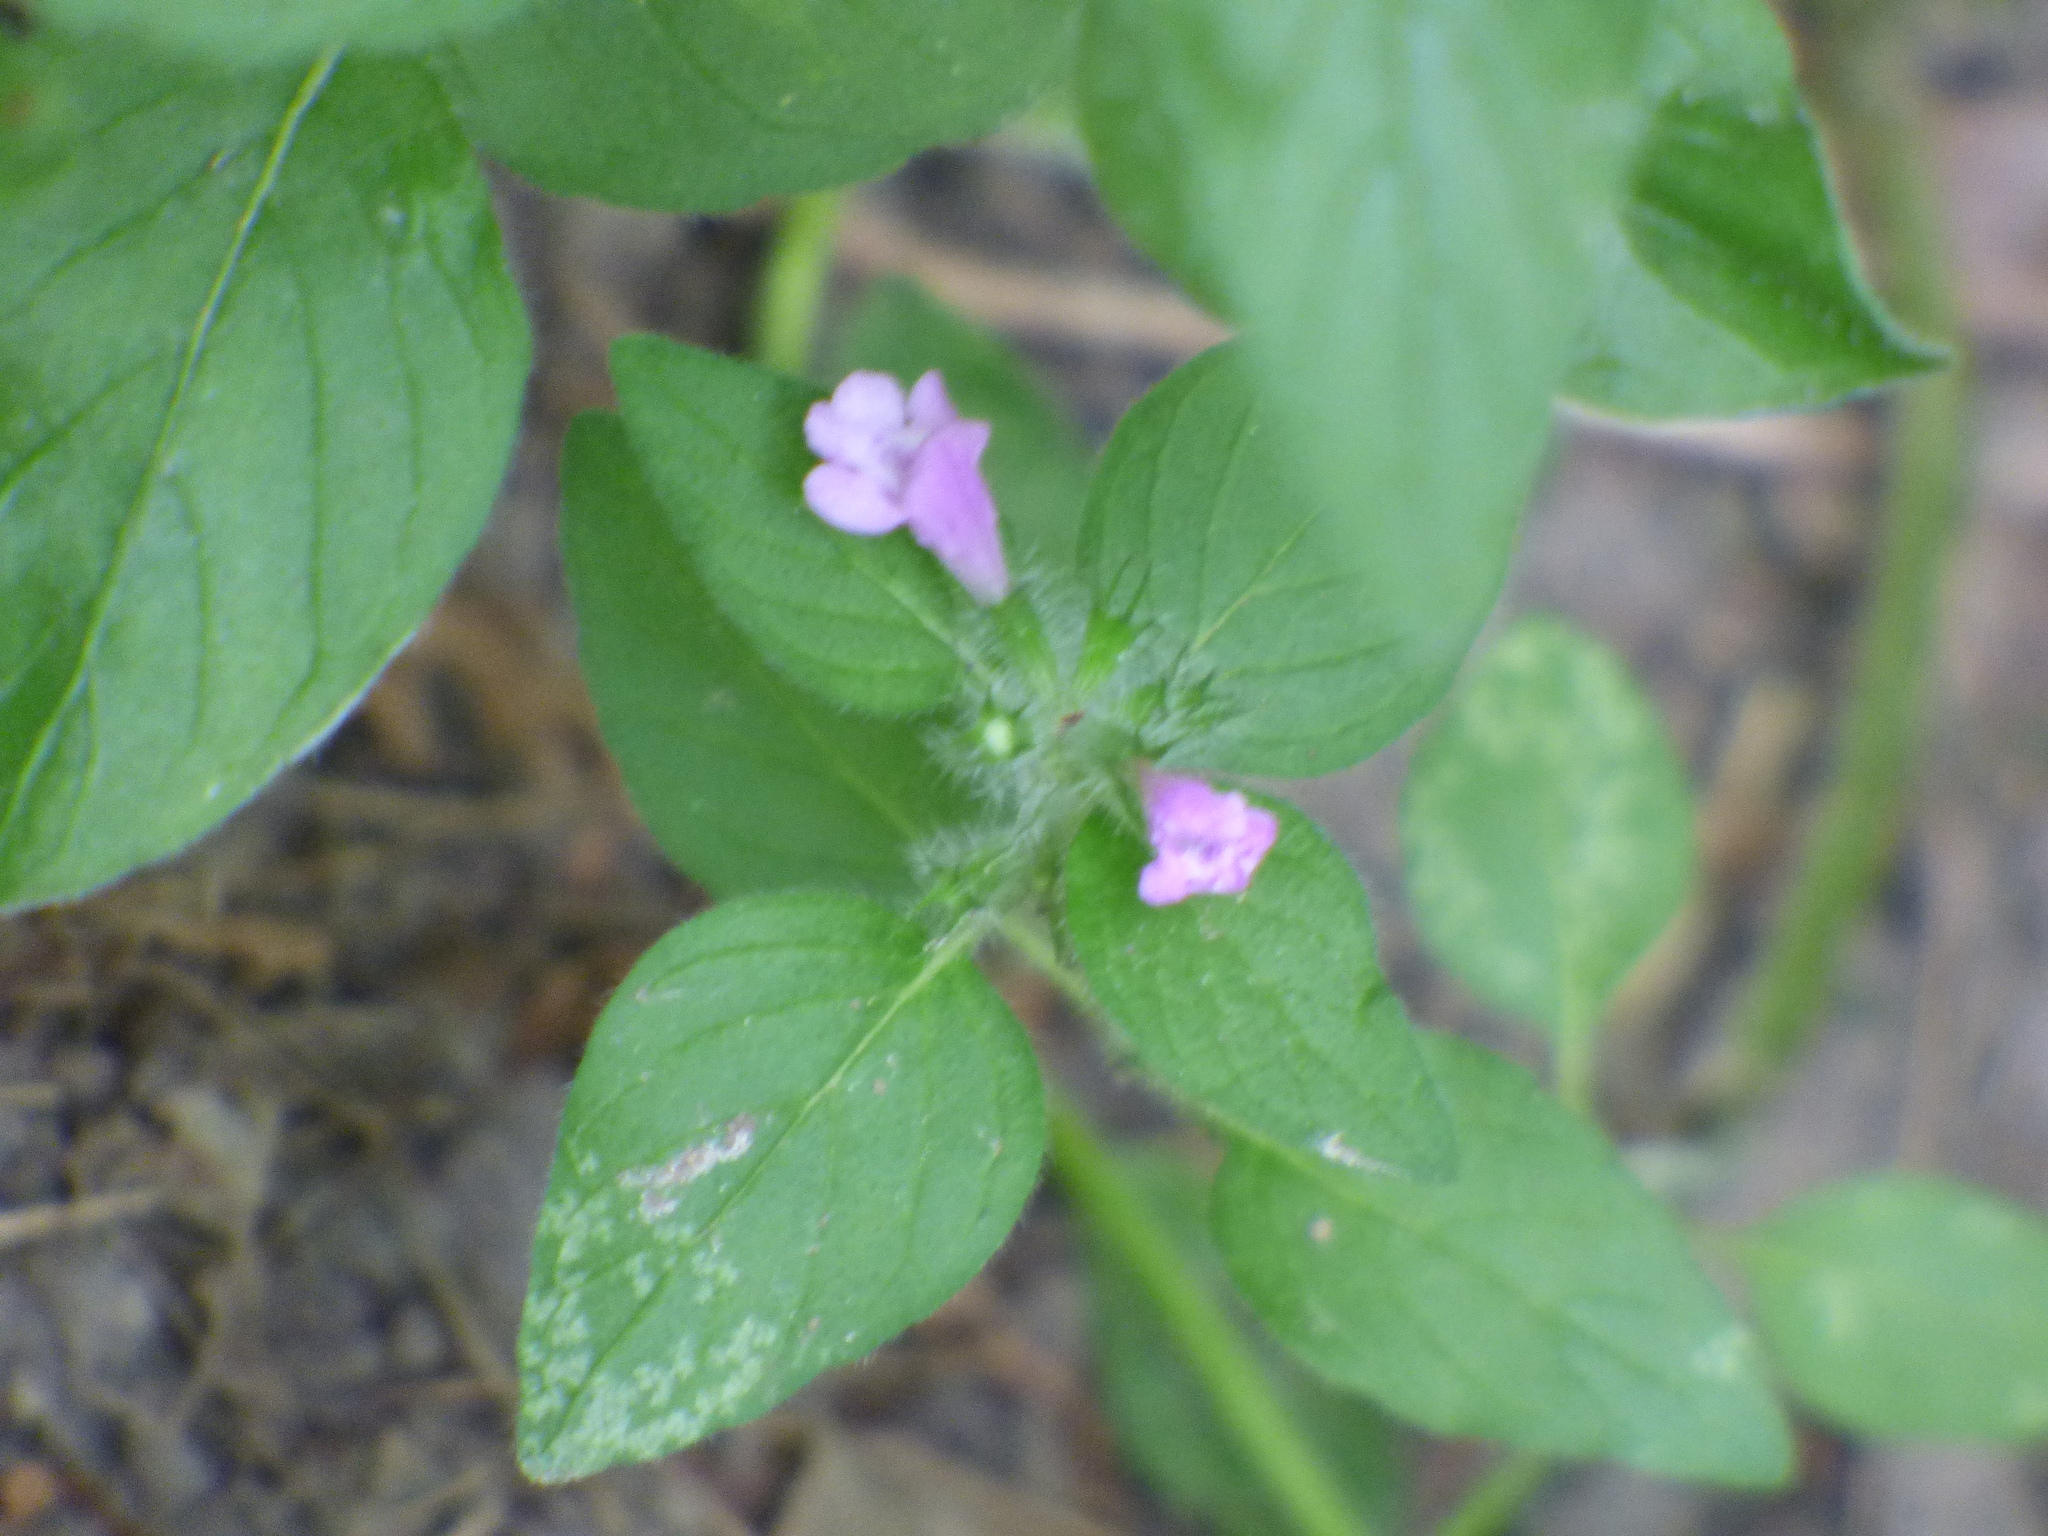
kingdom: Plantae
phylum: Tracheophyta
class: Magnoliopsida
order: Lamiales
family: Lamiaceae
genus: Clinopodium
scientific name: Clinopodium vulgare
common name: Wild basil
